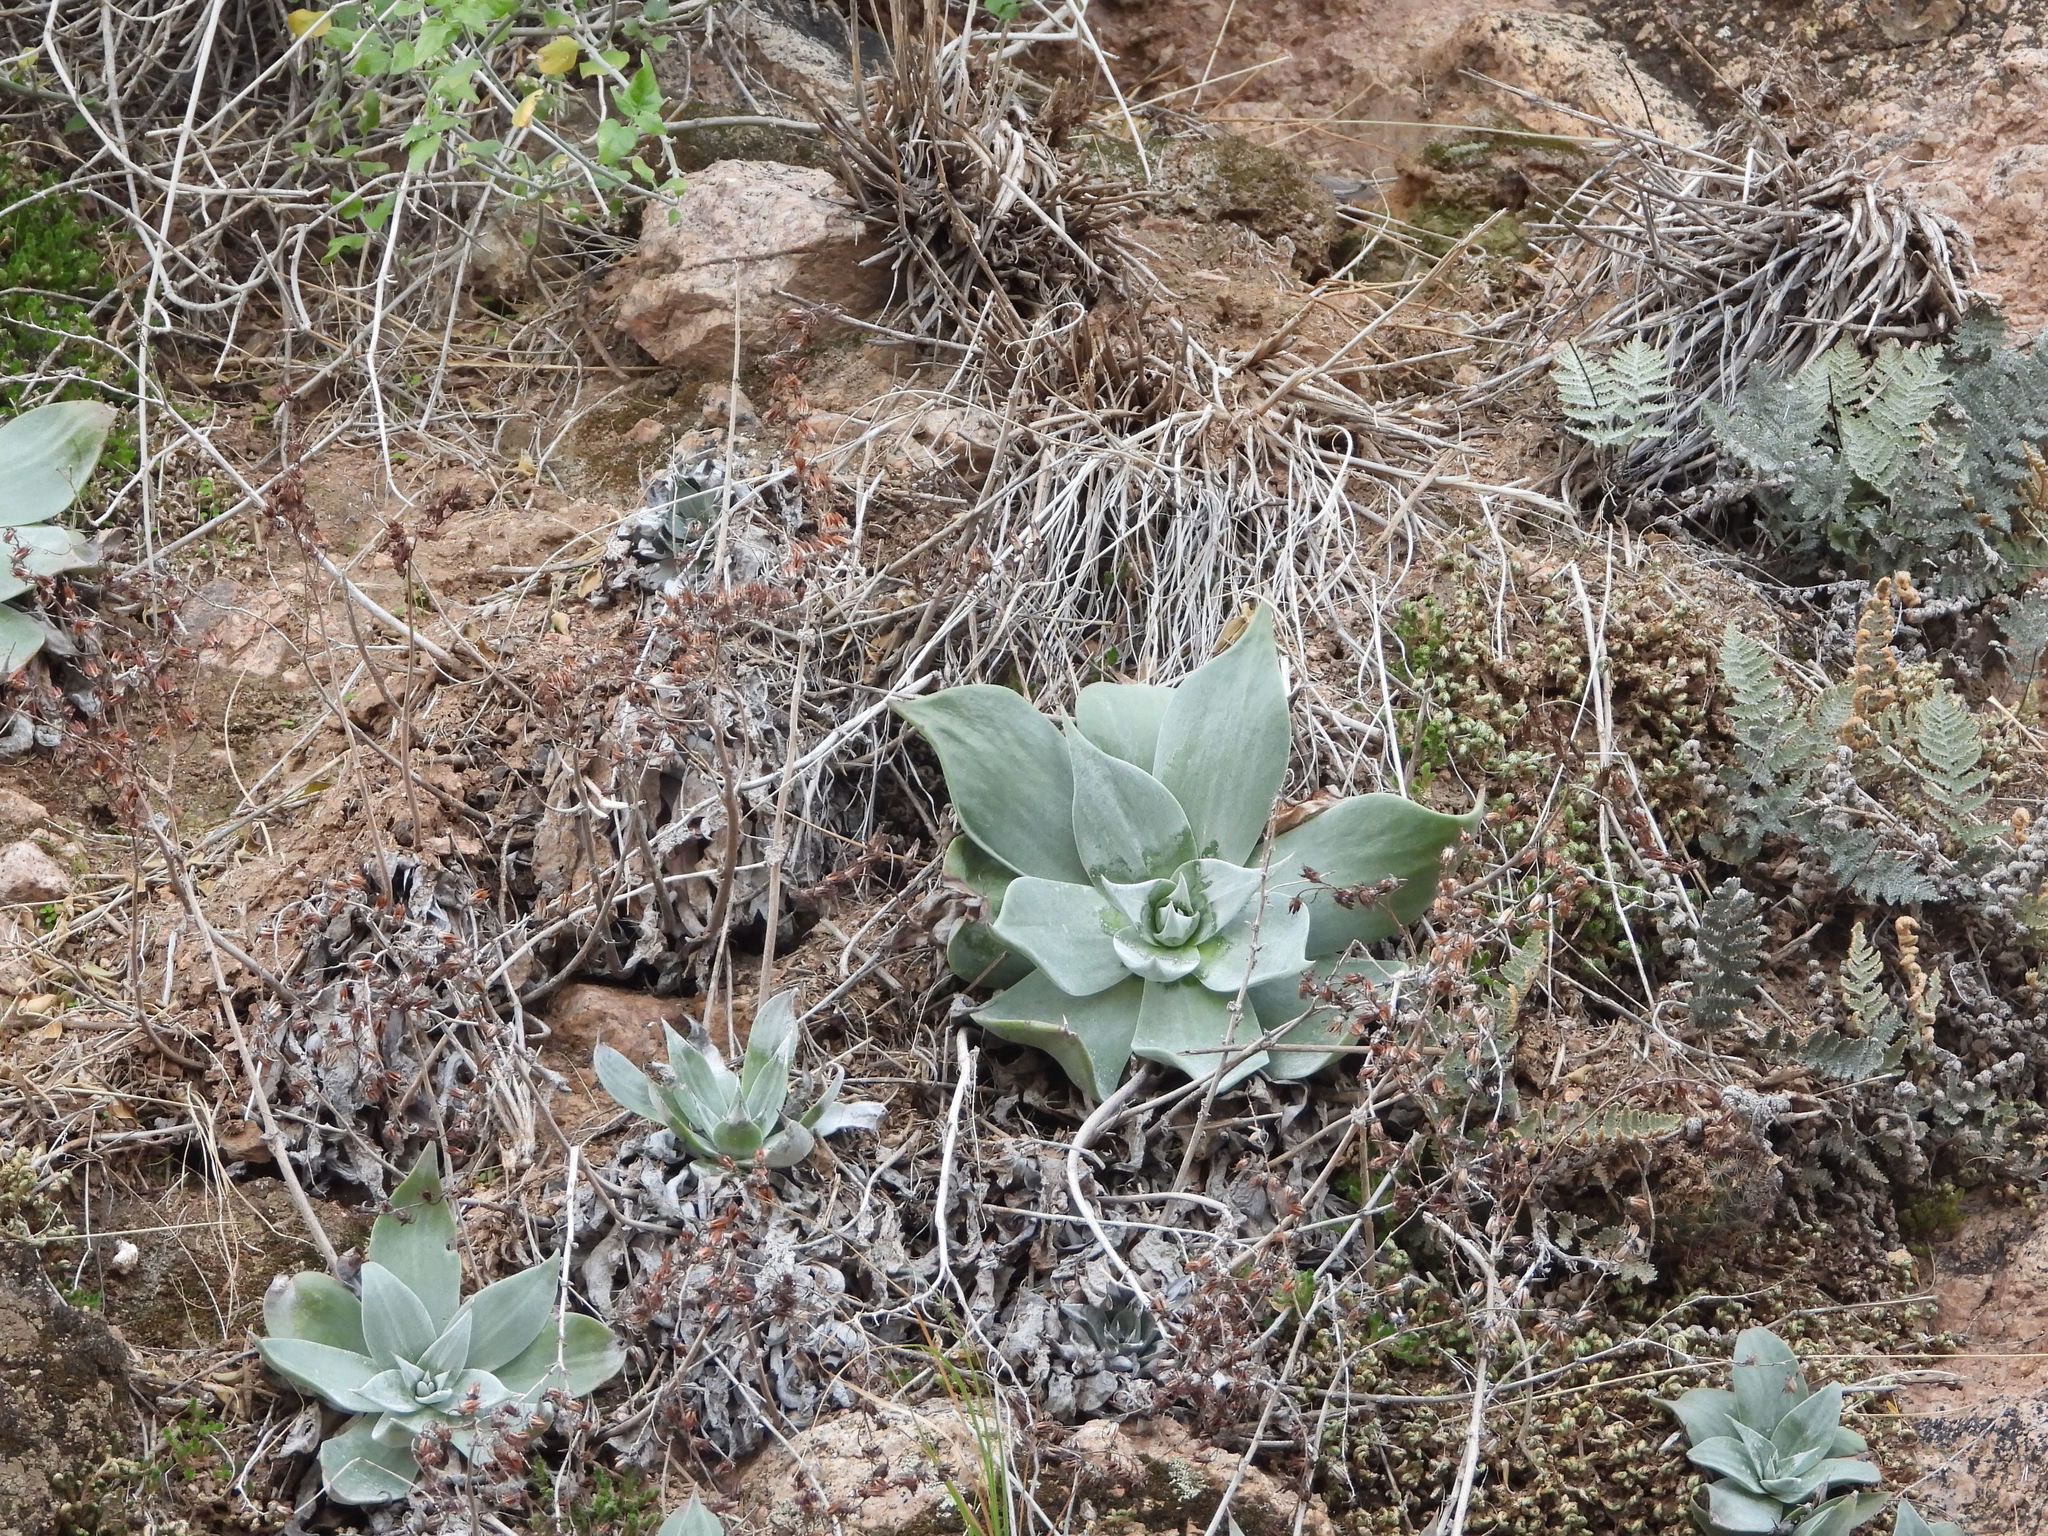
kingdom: Plantae
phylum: Tracheophyta
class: Magnoliopsida
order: Saxifragales
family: Crassulaceae
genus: Dudleya
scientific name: Dudleya arizonica
